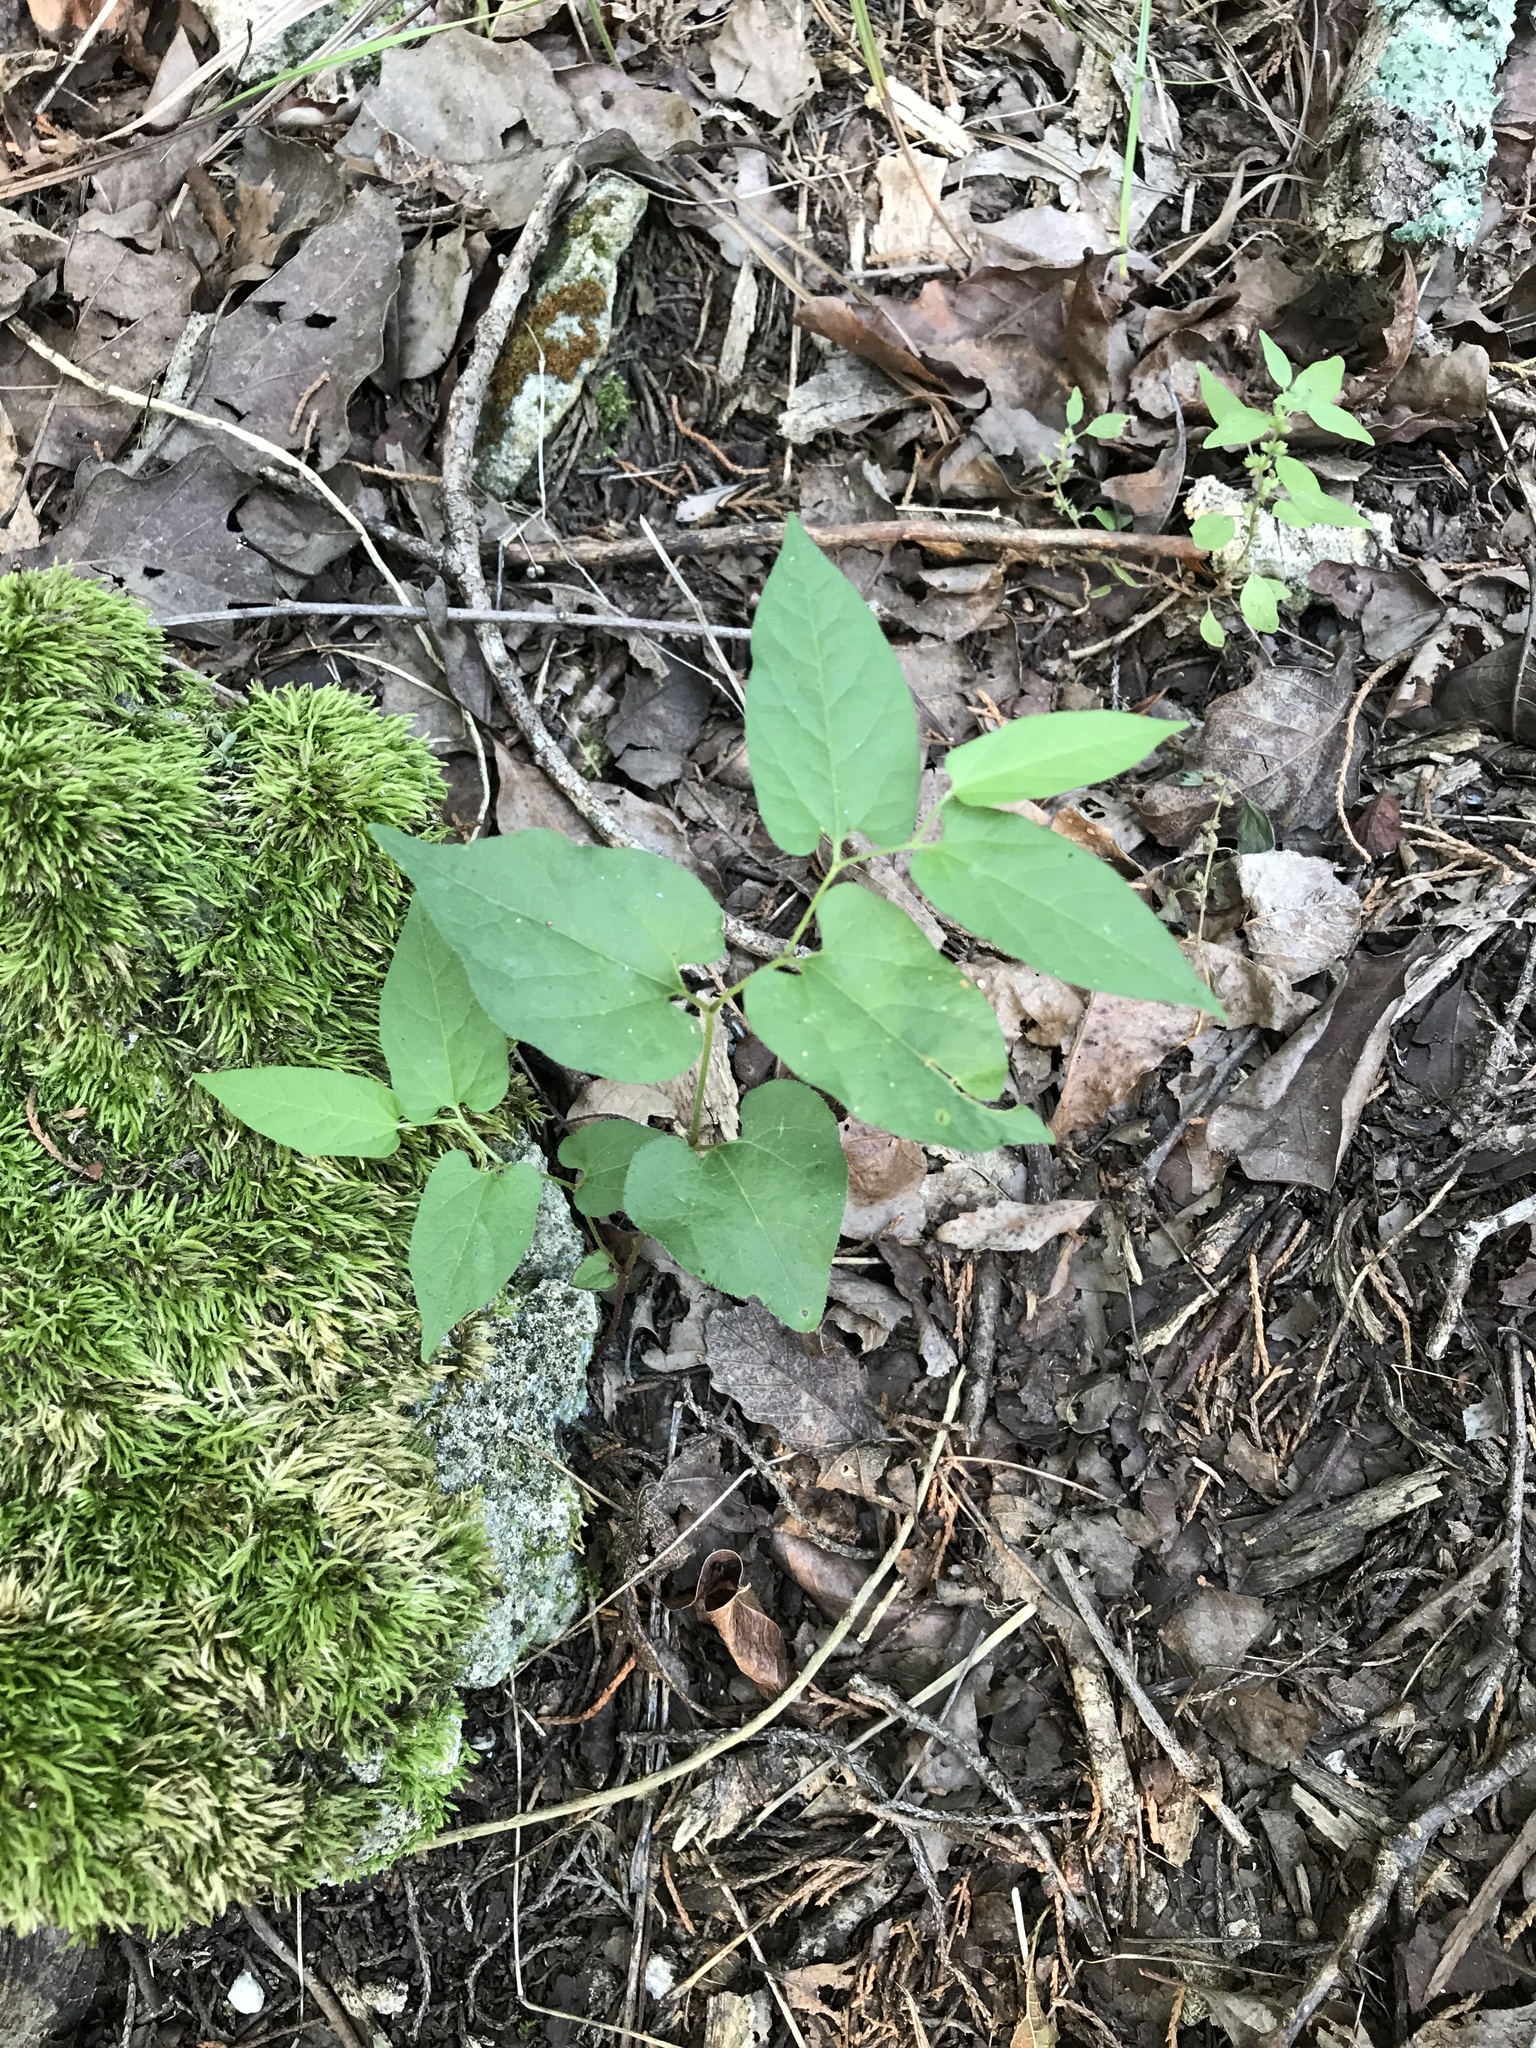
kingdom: Plantae
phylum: Tracheophyta
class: Magnoliopsida
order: Piperales
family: Aristolochiaceae
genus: Endodeca
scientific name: Endodeca serpentaria
